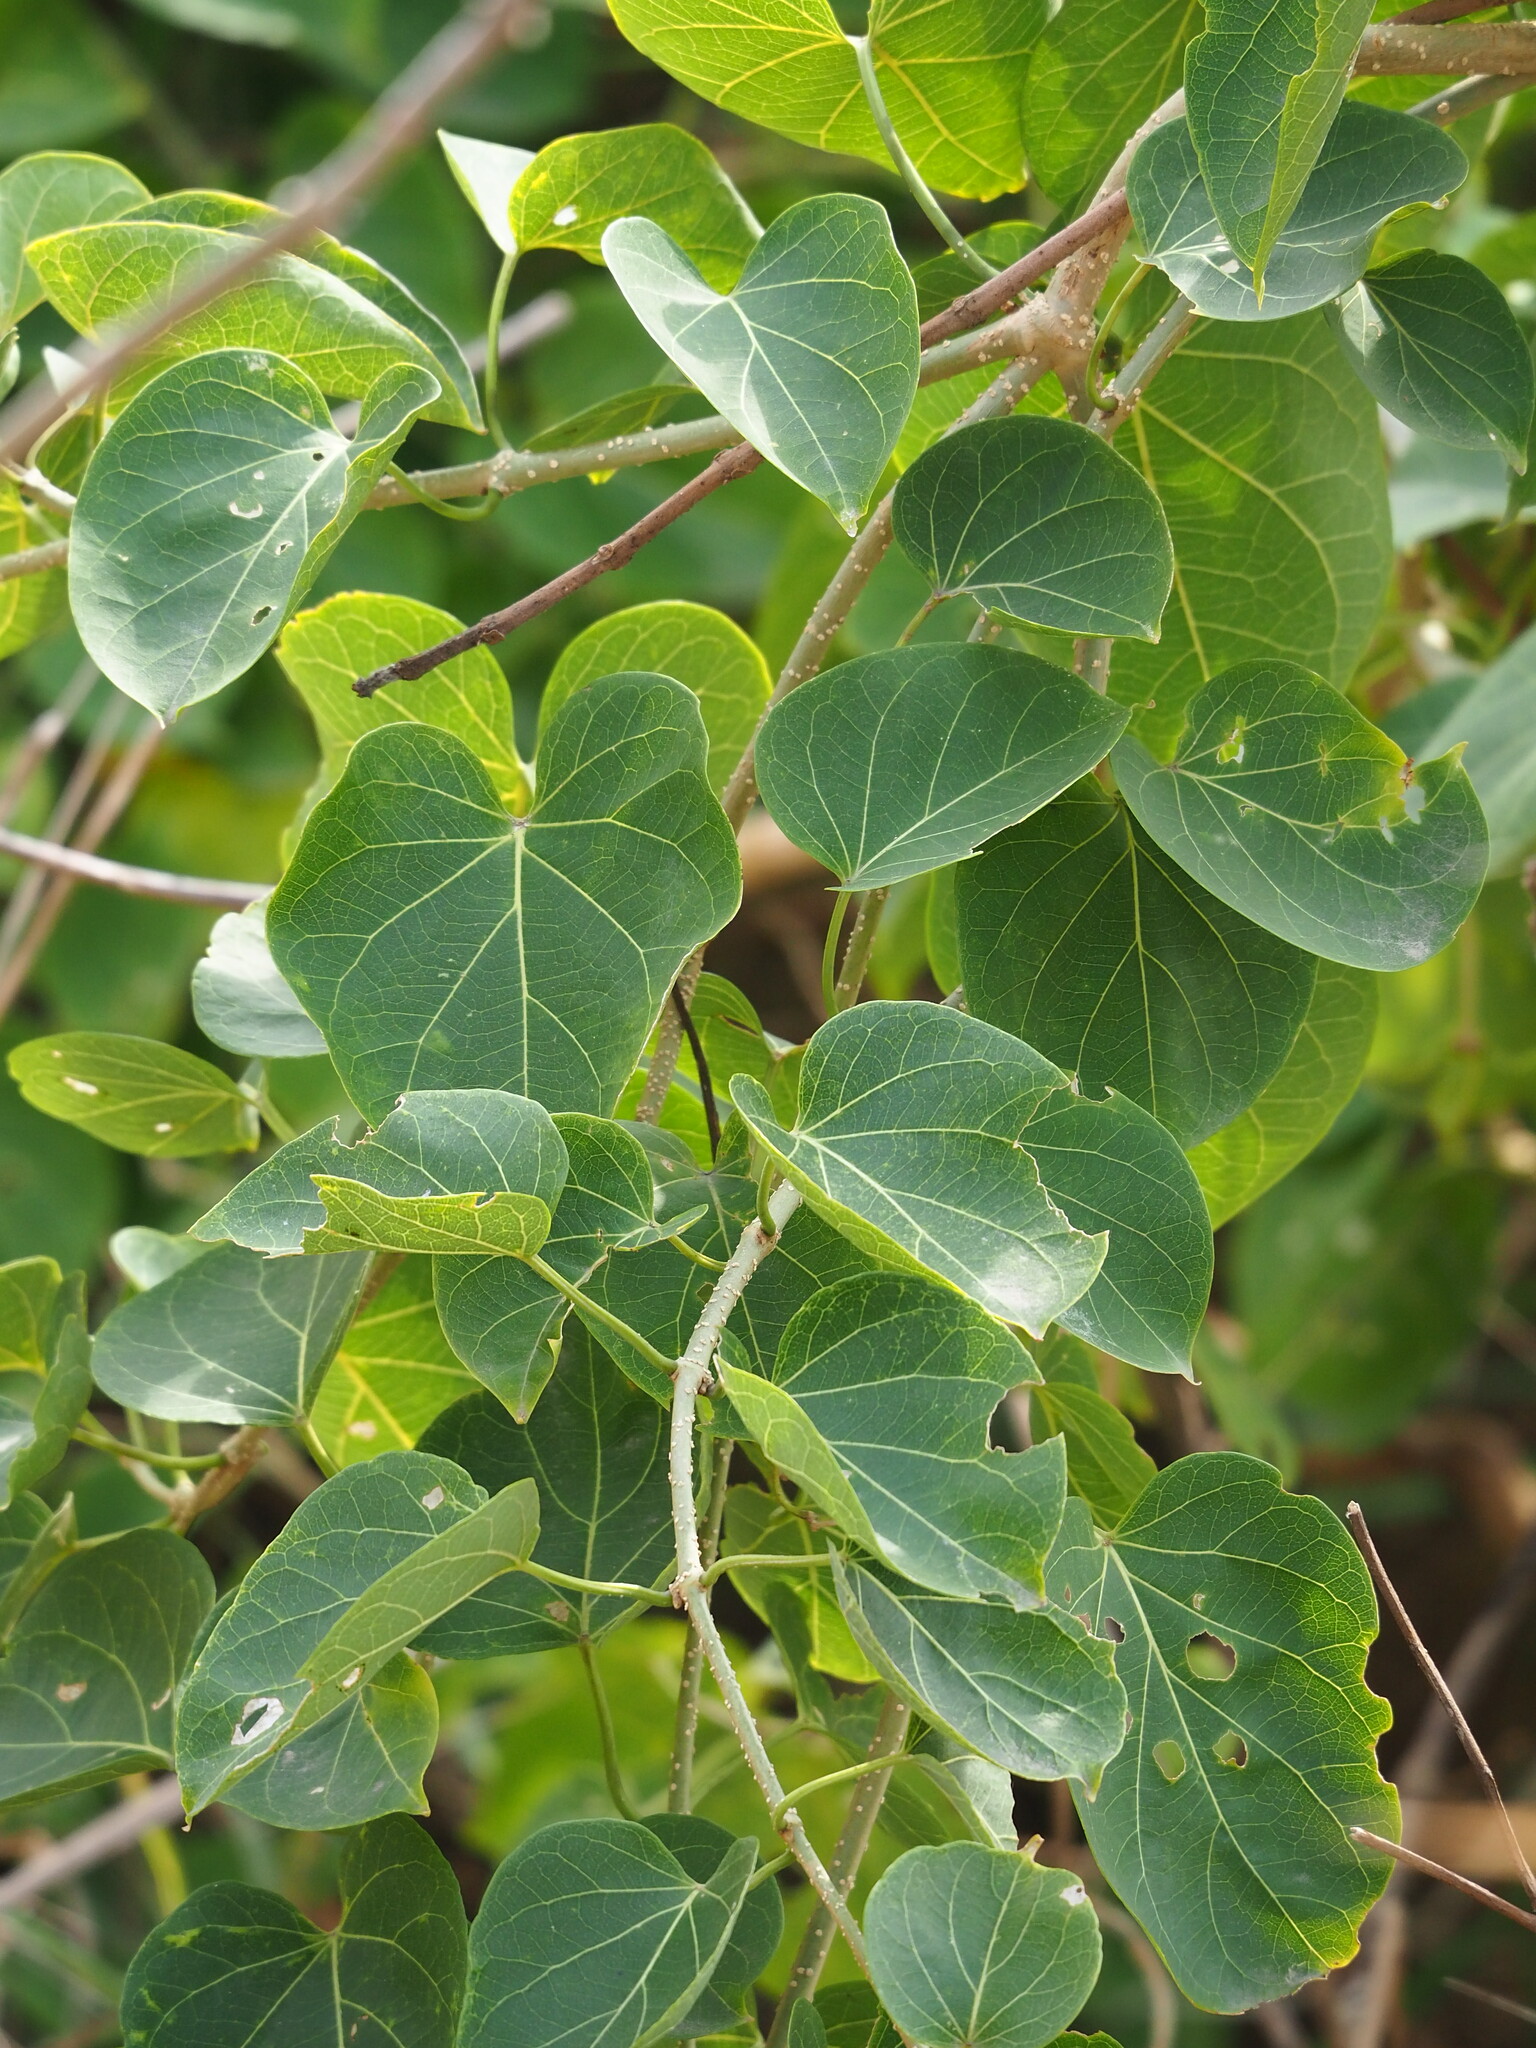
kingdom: Plantae
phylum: Tracheophyta
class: Magnoliopsida
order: Gentianales
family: Apocynaceae
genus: Stephanotis
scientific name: Stephanotis volubilis
